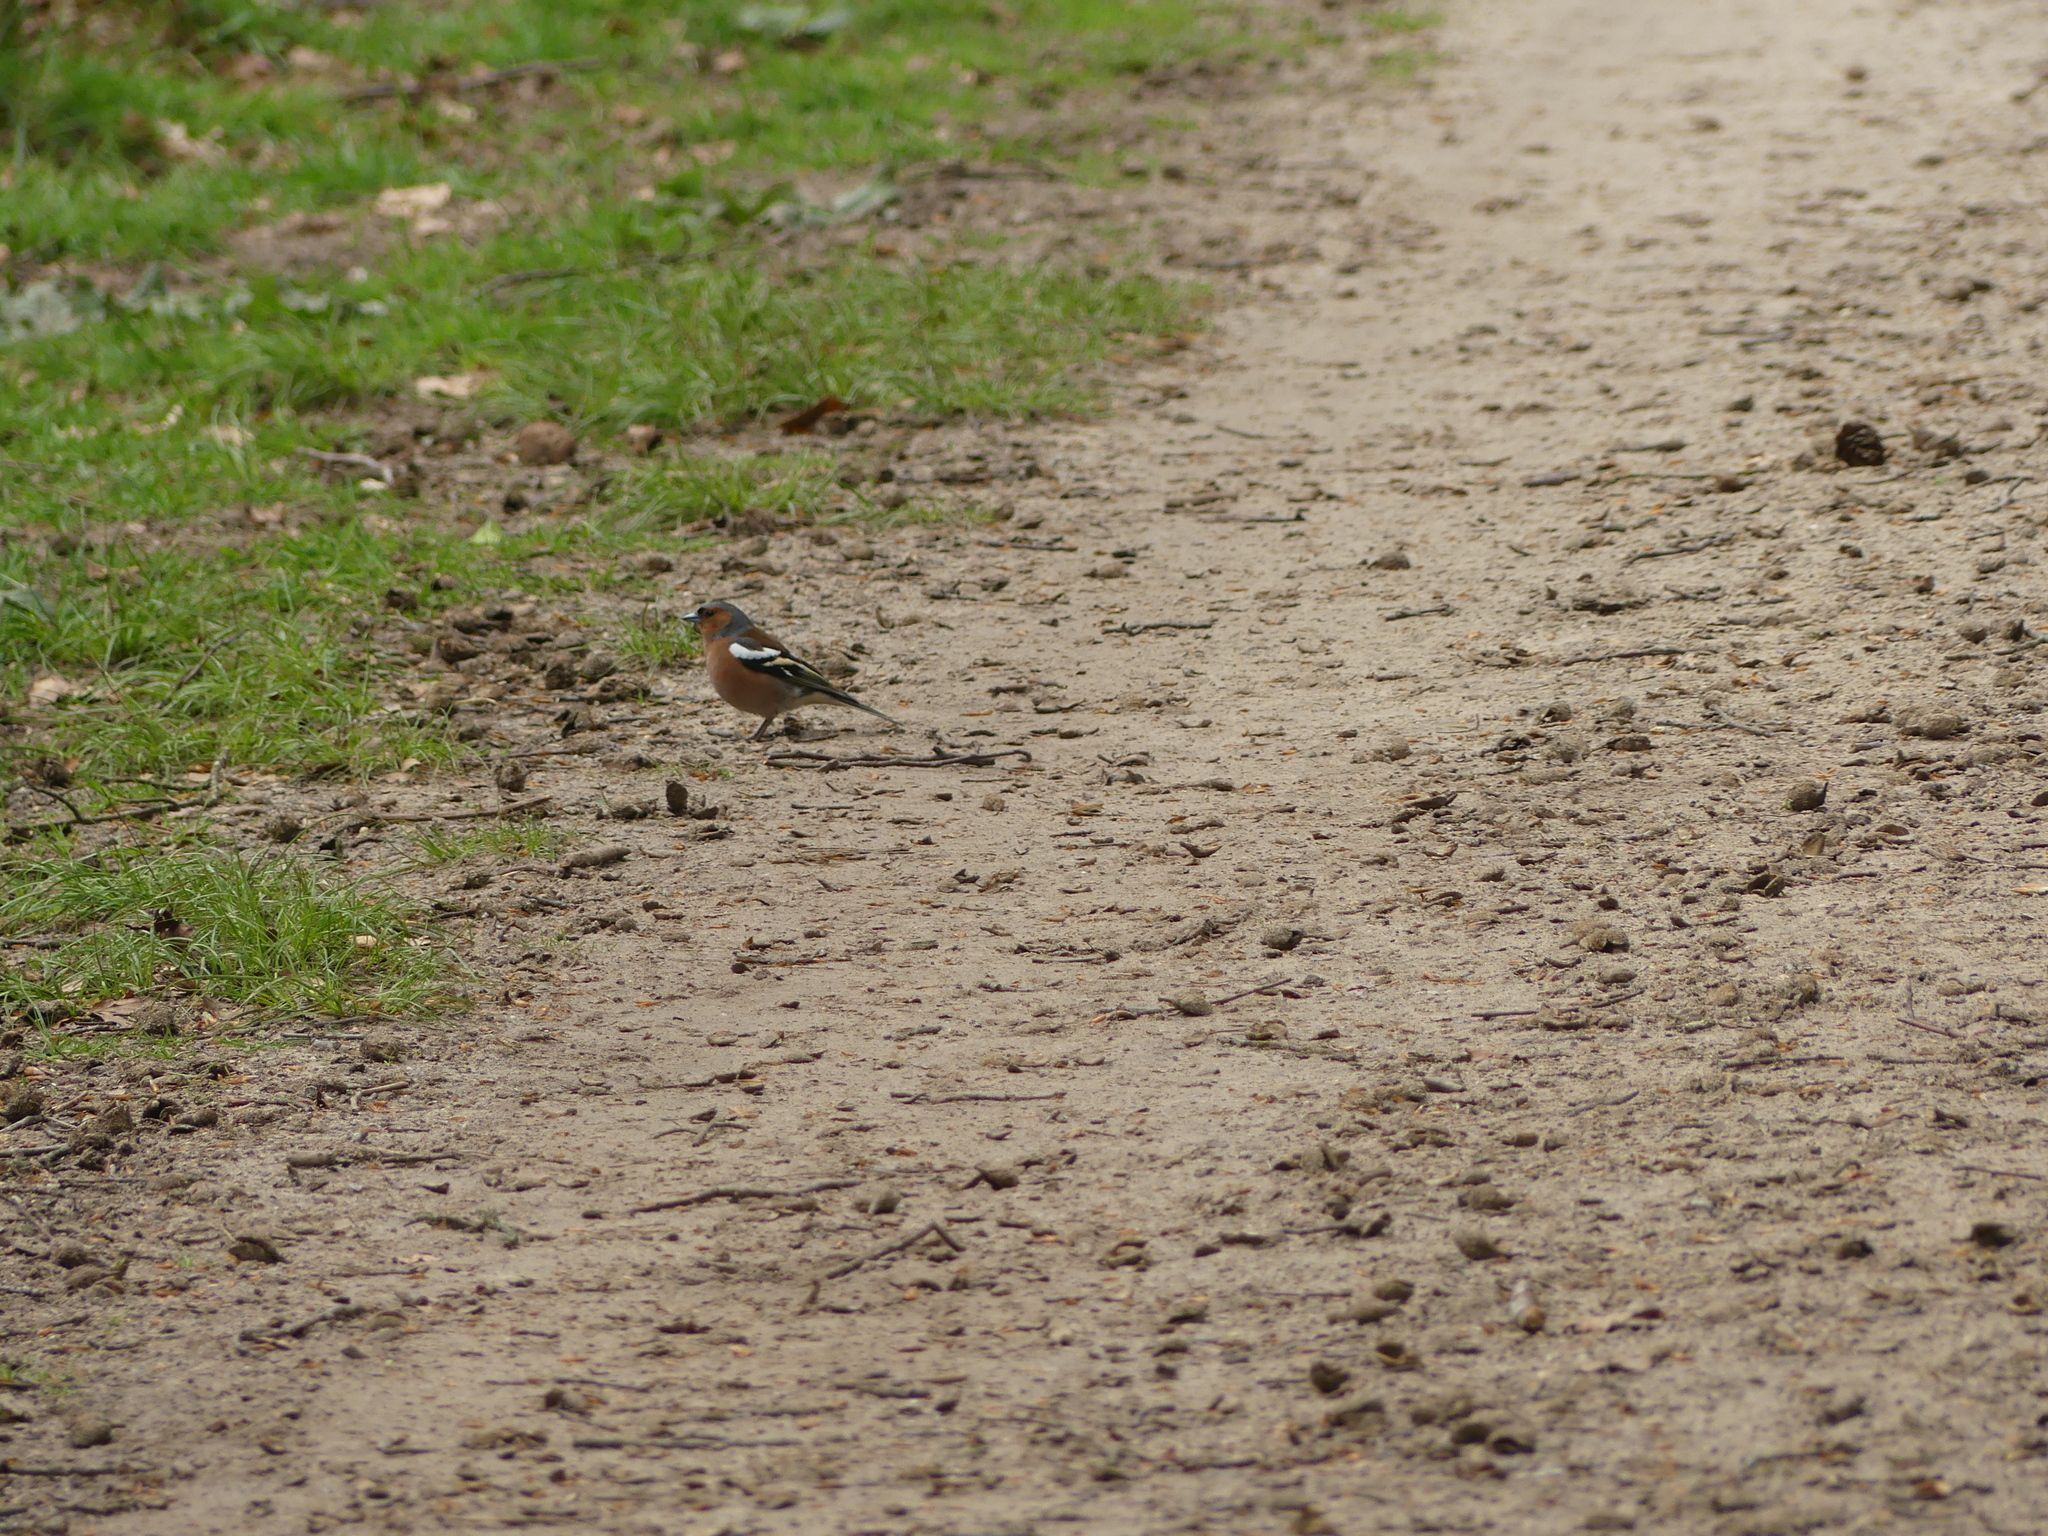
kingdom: Animalia
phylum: Chordata
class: Aves
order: Passeriformes
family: Fringillidae
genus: Fringilla
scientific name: Fringilla coelebs
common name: Common chaffinch
